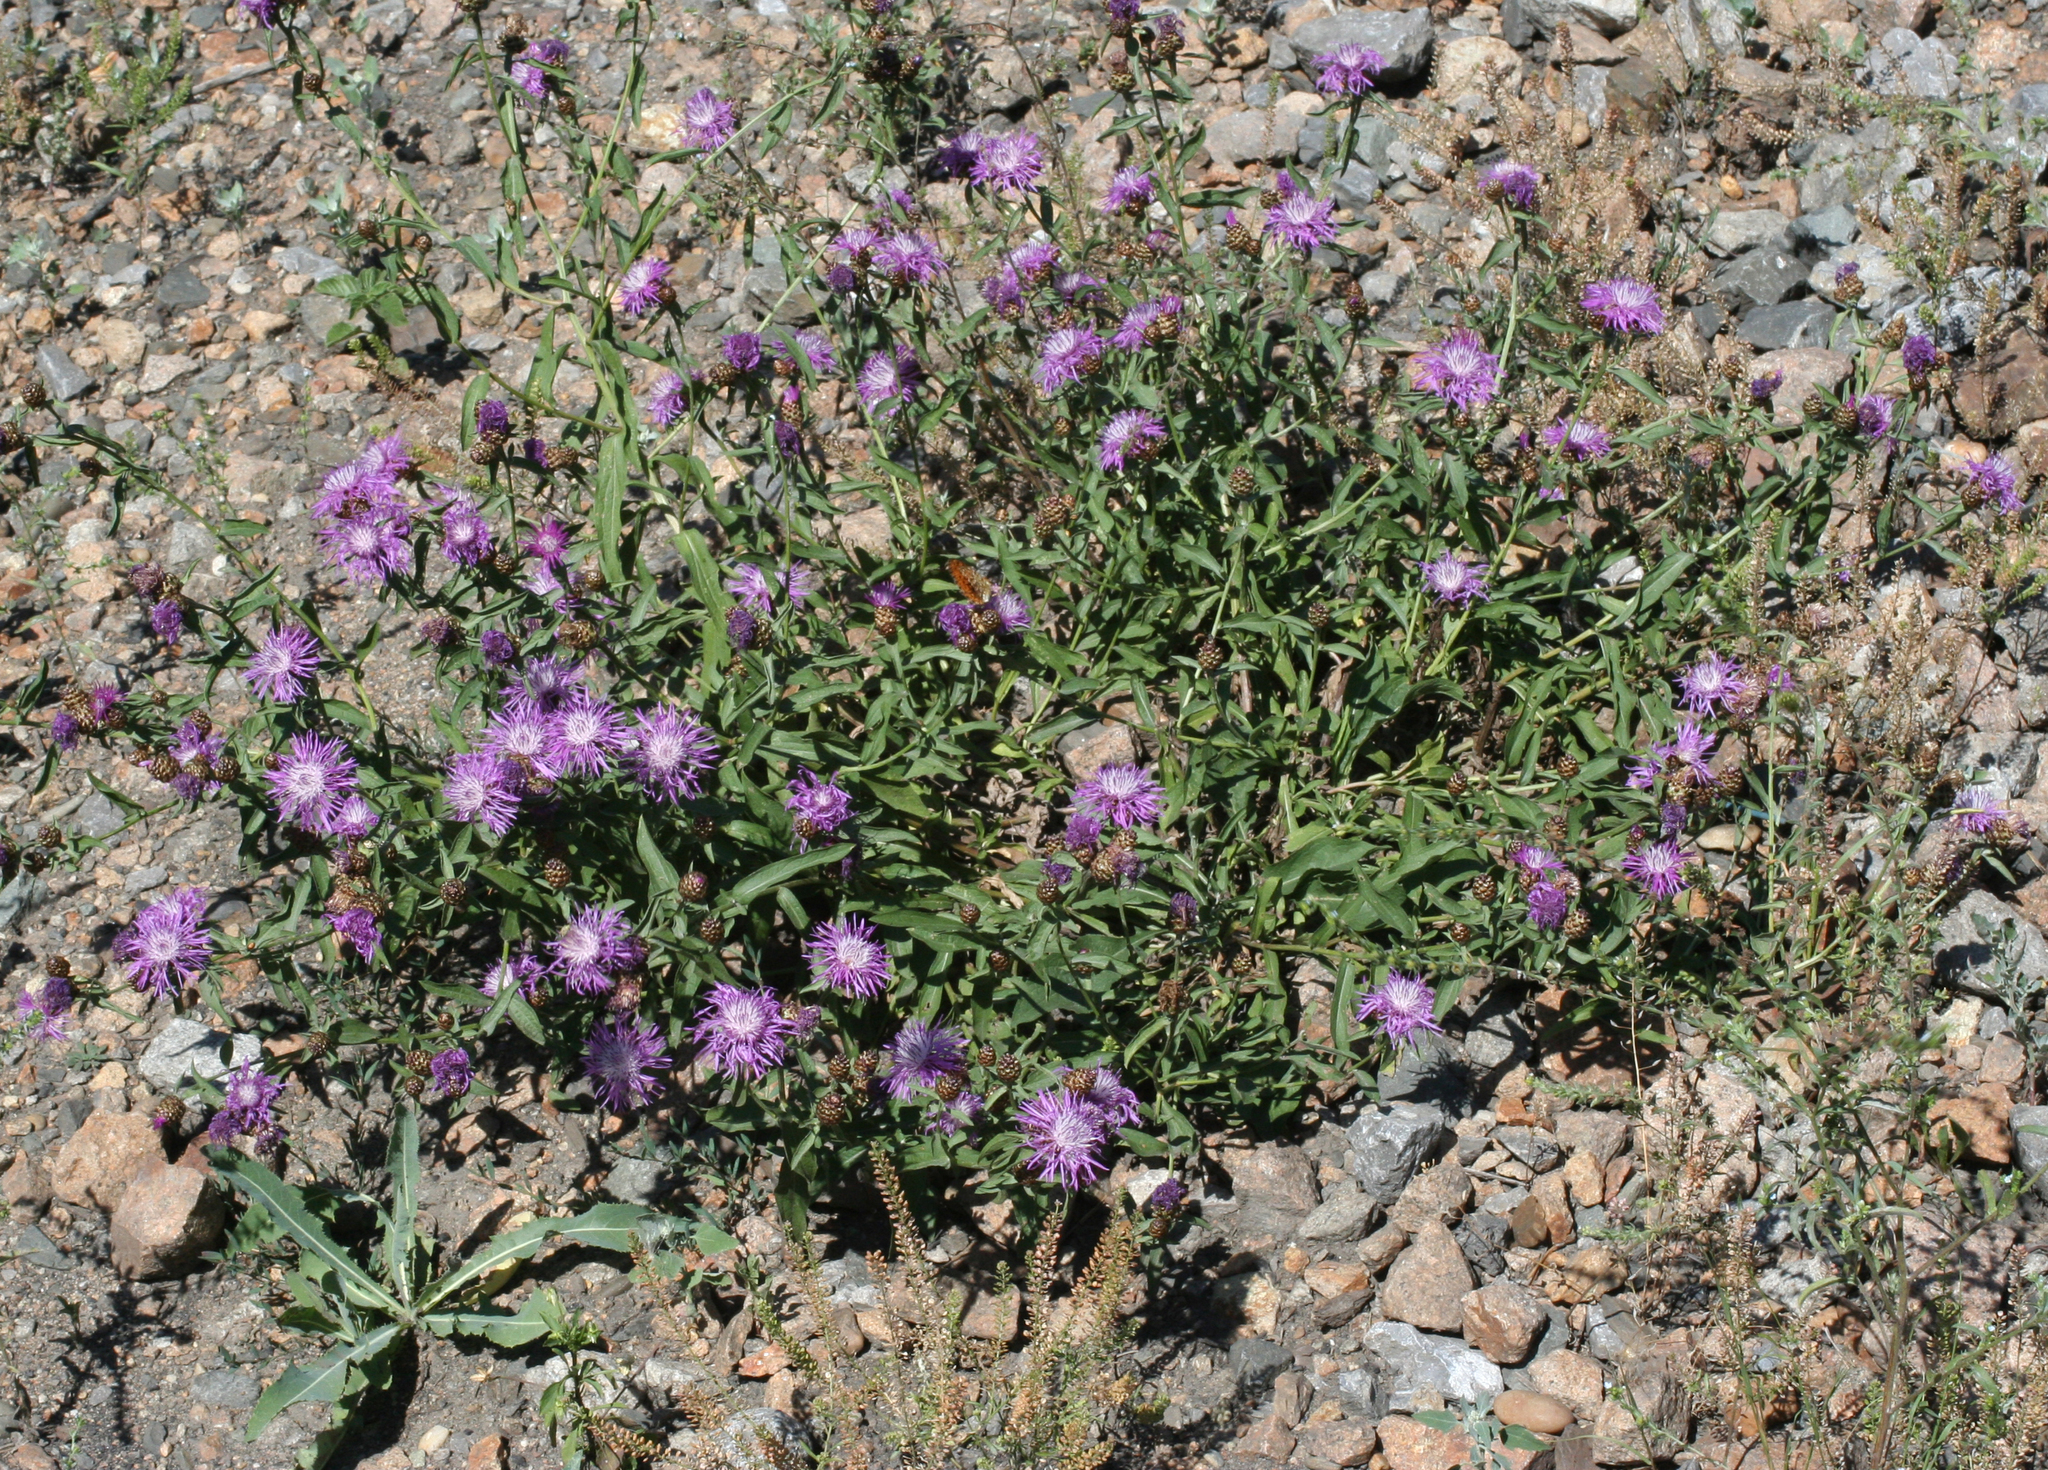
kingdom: Plantae
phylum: Tracheophyta
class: Magnoliopsida
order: Asterales
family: Asteraceae
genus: Centaurea
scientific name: Centaurea jacea
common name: Brown knapweed
